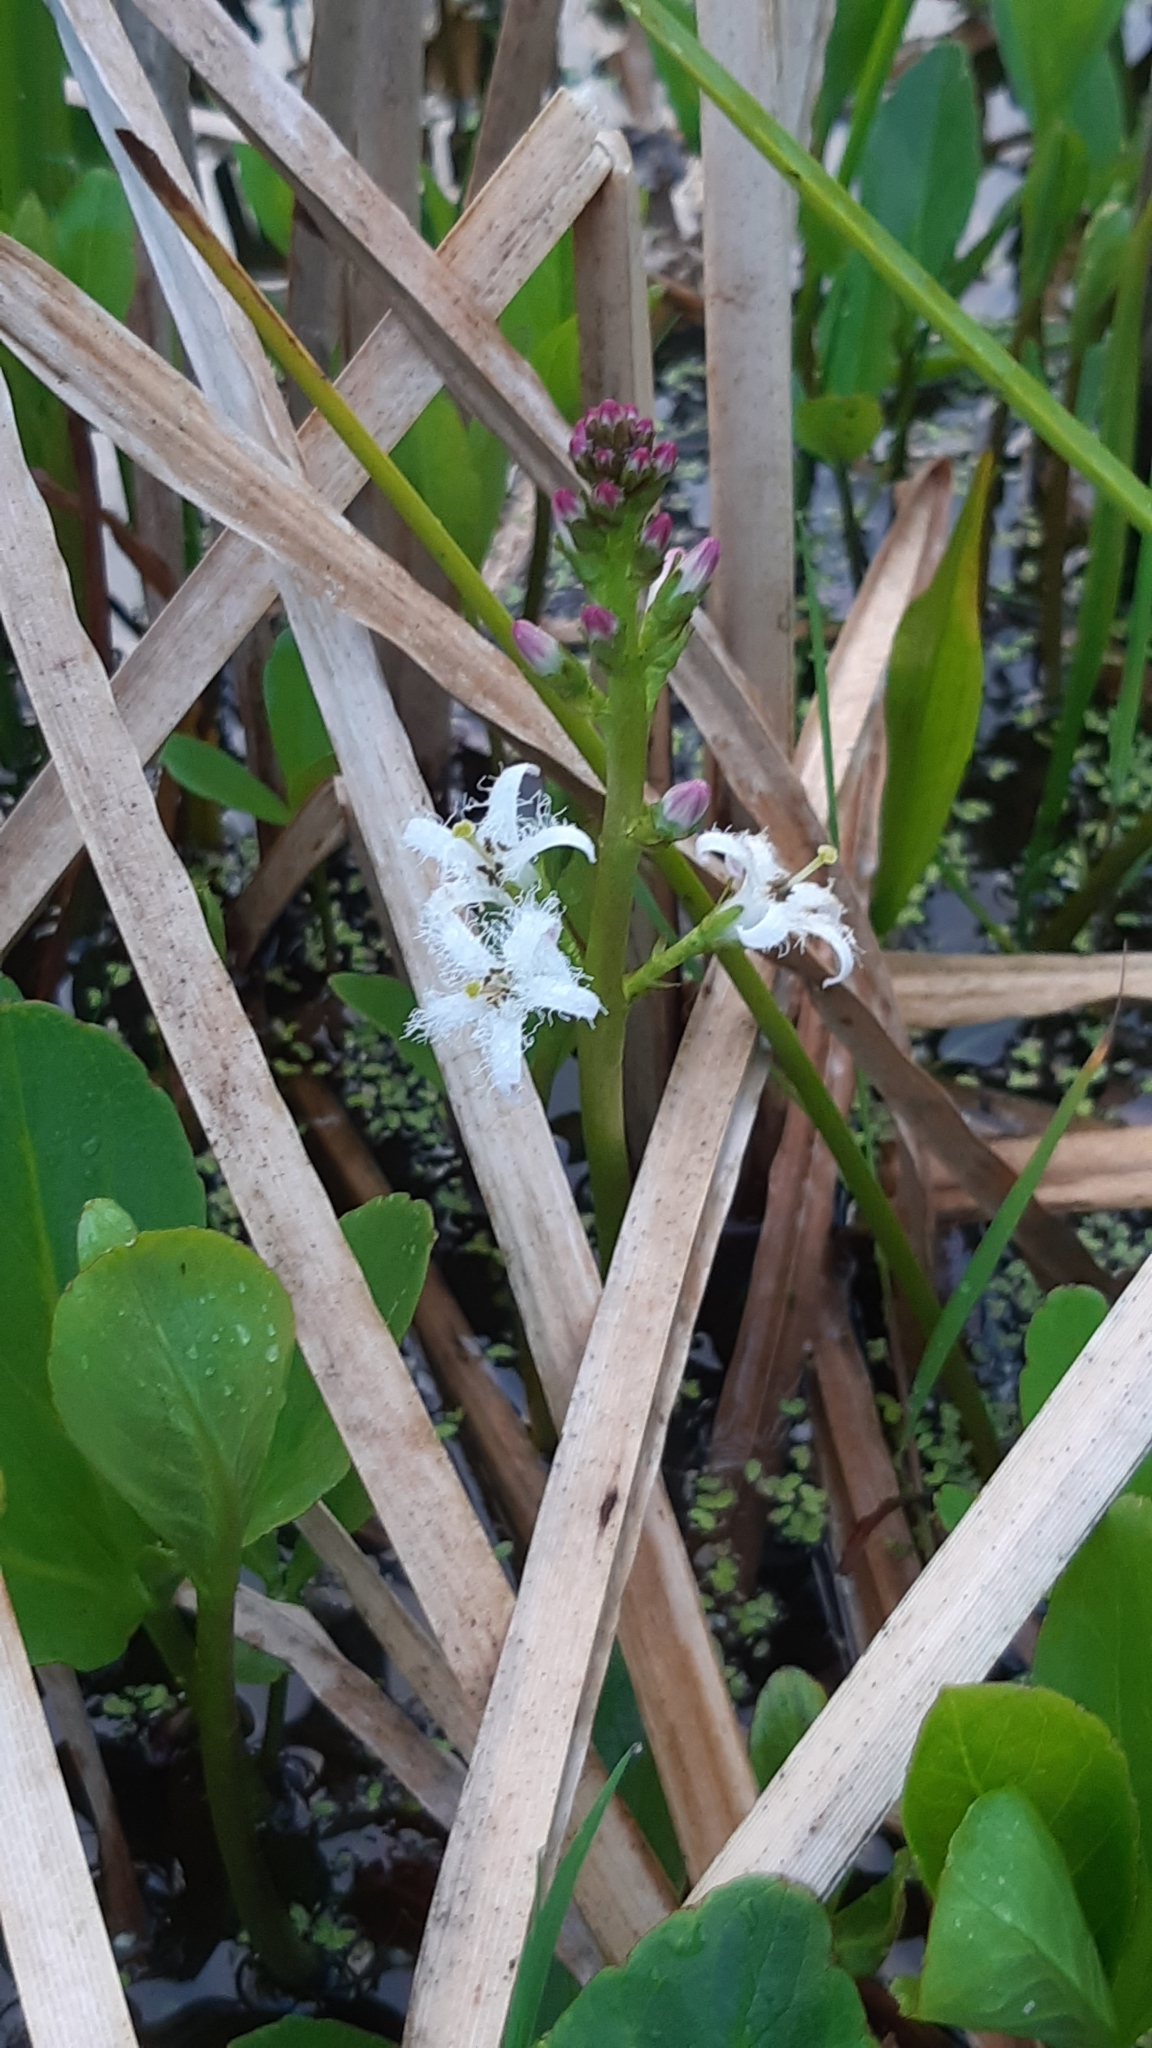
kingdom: Plantae
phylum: Tracheophyta
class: Magnoliopsida
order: Asterales
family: Menyanthaceae
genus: Menyanthes
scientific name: Menyanthes trifoliata
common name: Bogbean
